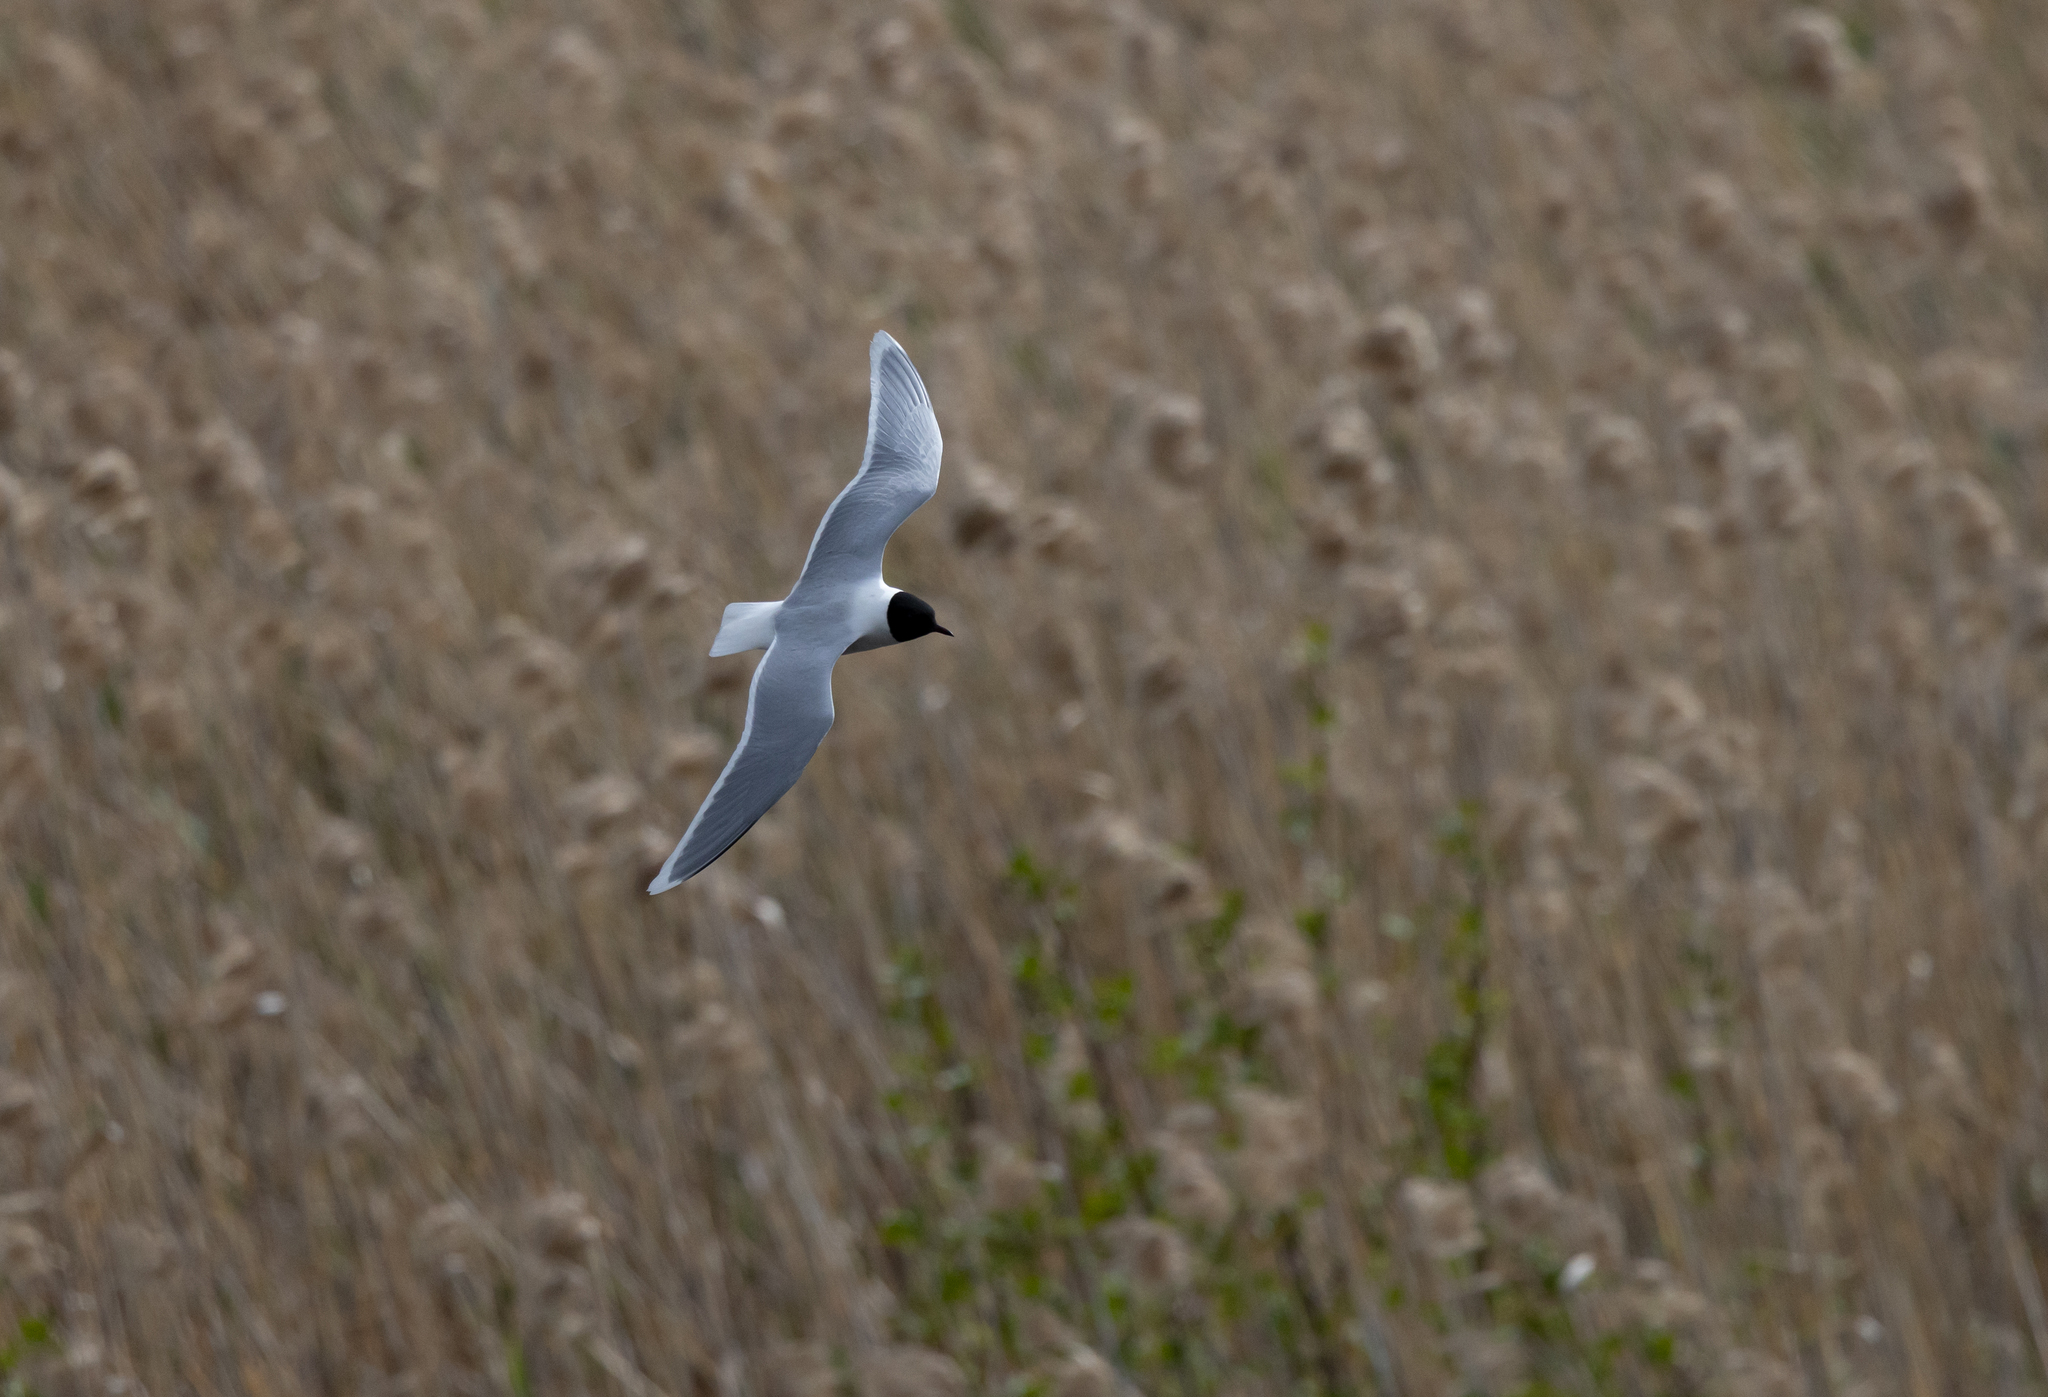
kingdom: Animalia
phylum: Chordata
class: Aves
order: Charadriiformes
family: Laridae
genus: Hydrocoloeus
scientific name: Hydrocoloeus minutus
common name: Little gull
